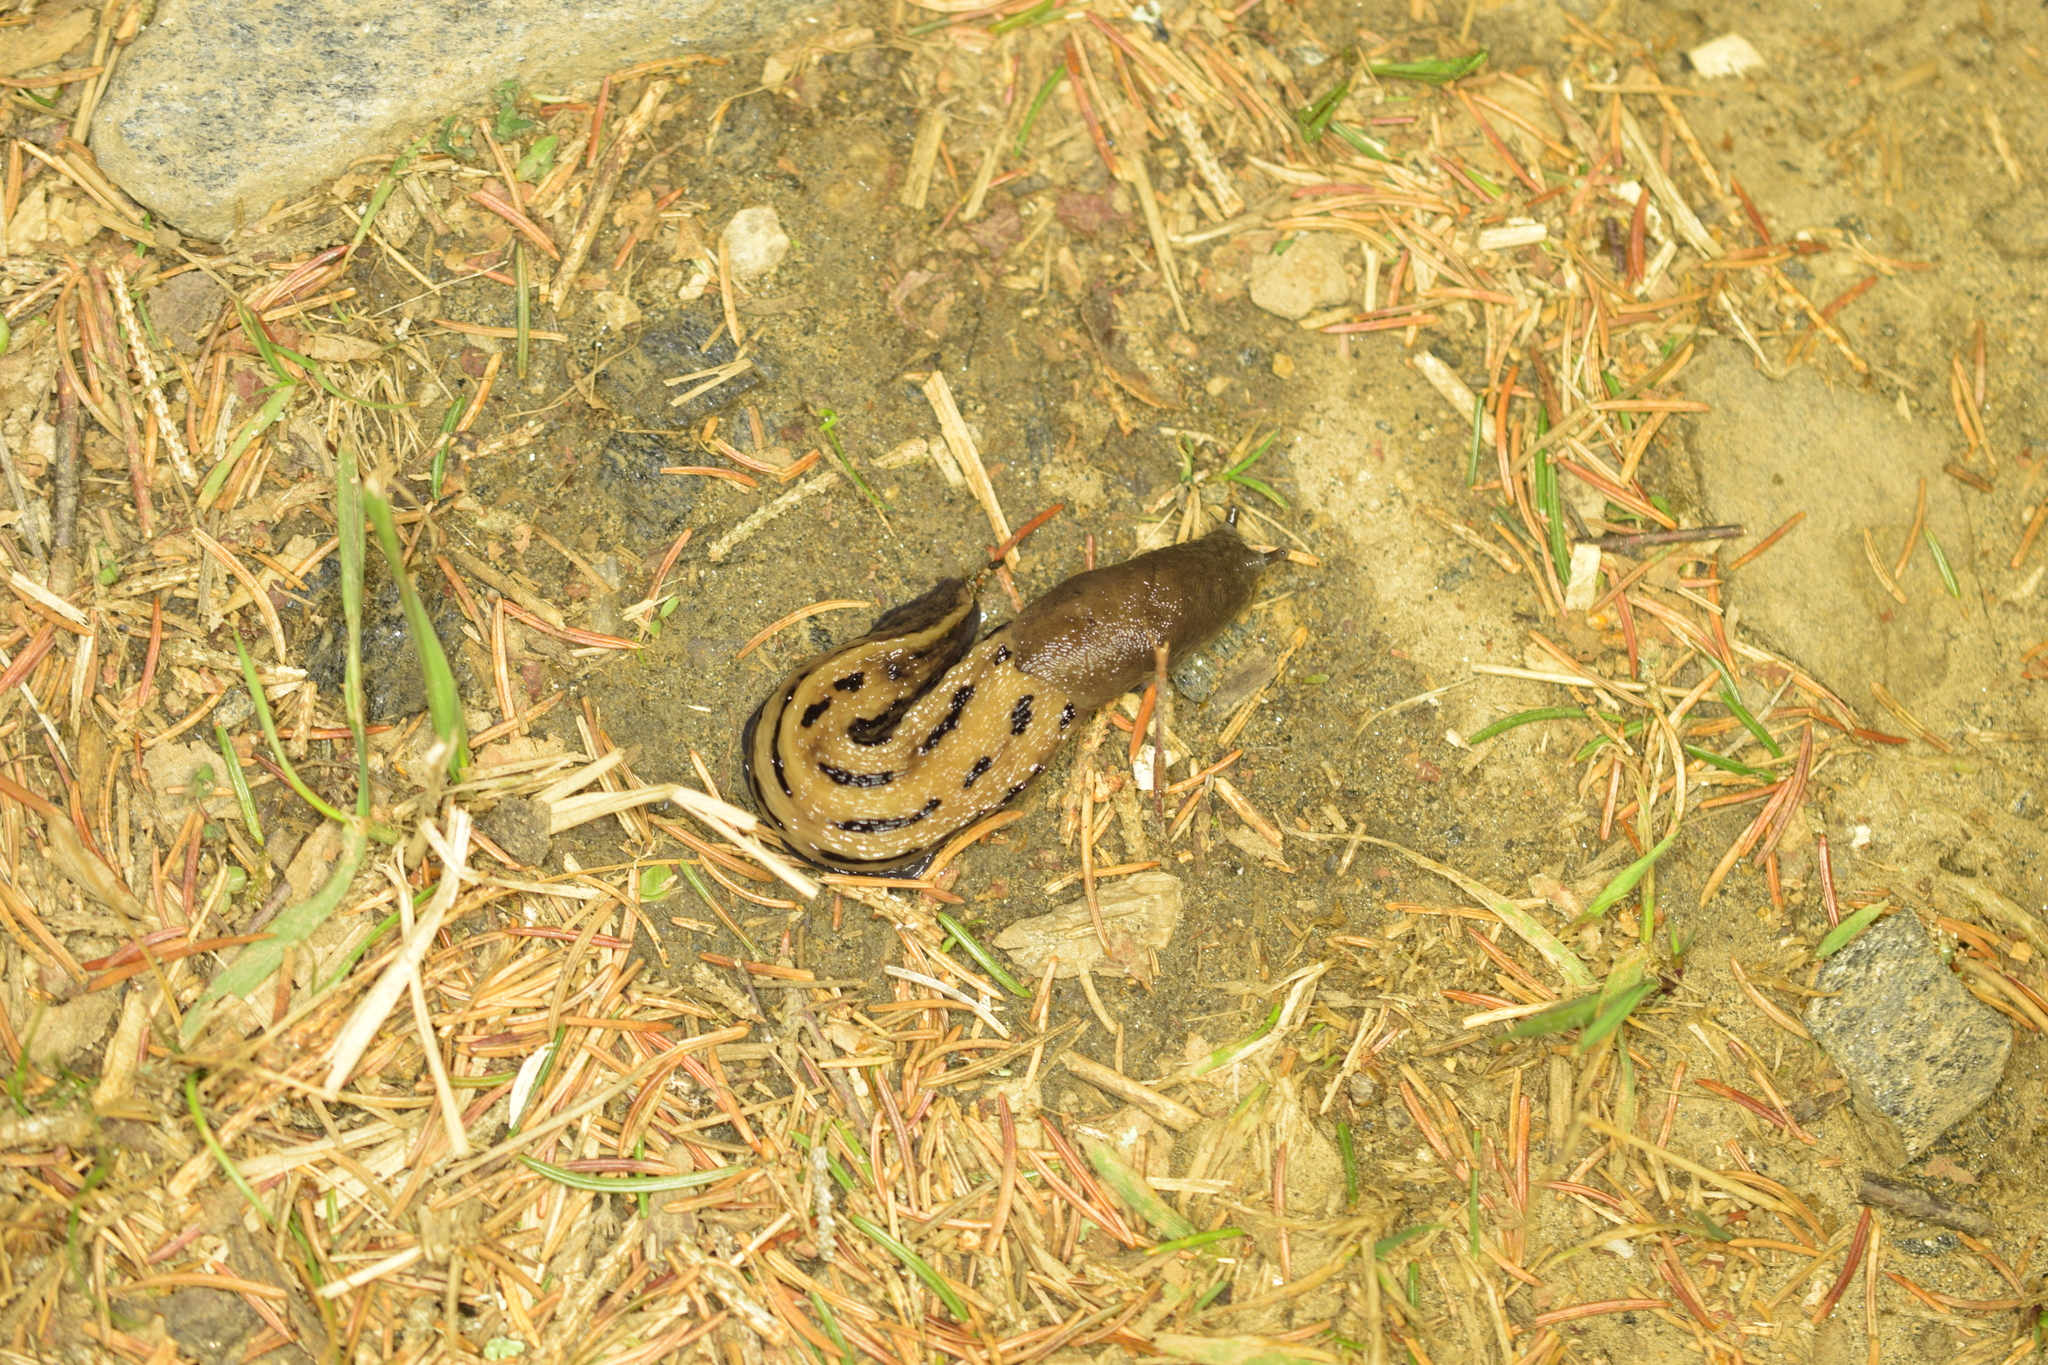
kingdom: Animalia
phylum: Mollusca
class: Gastropoda
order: Stylommatophora
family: Limacidae
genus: Limax
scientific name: Limax cinereoniger
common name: Ash-black slug
